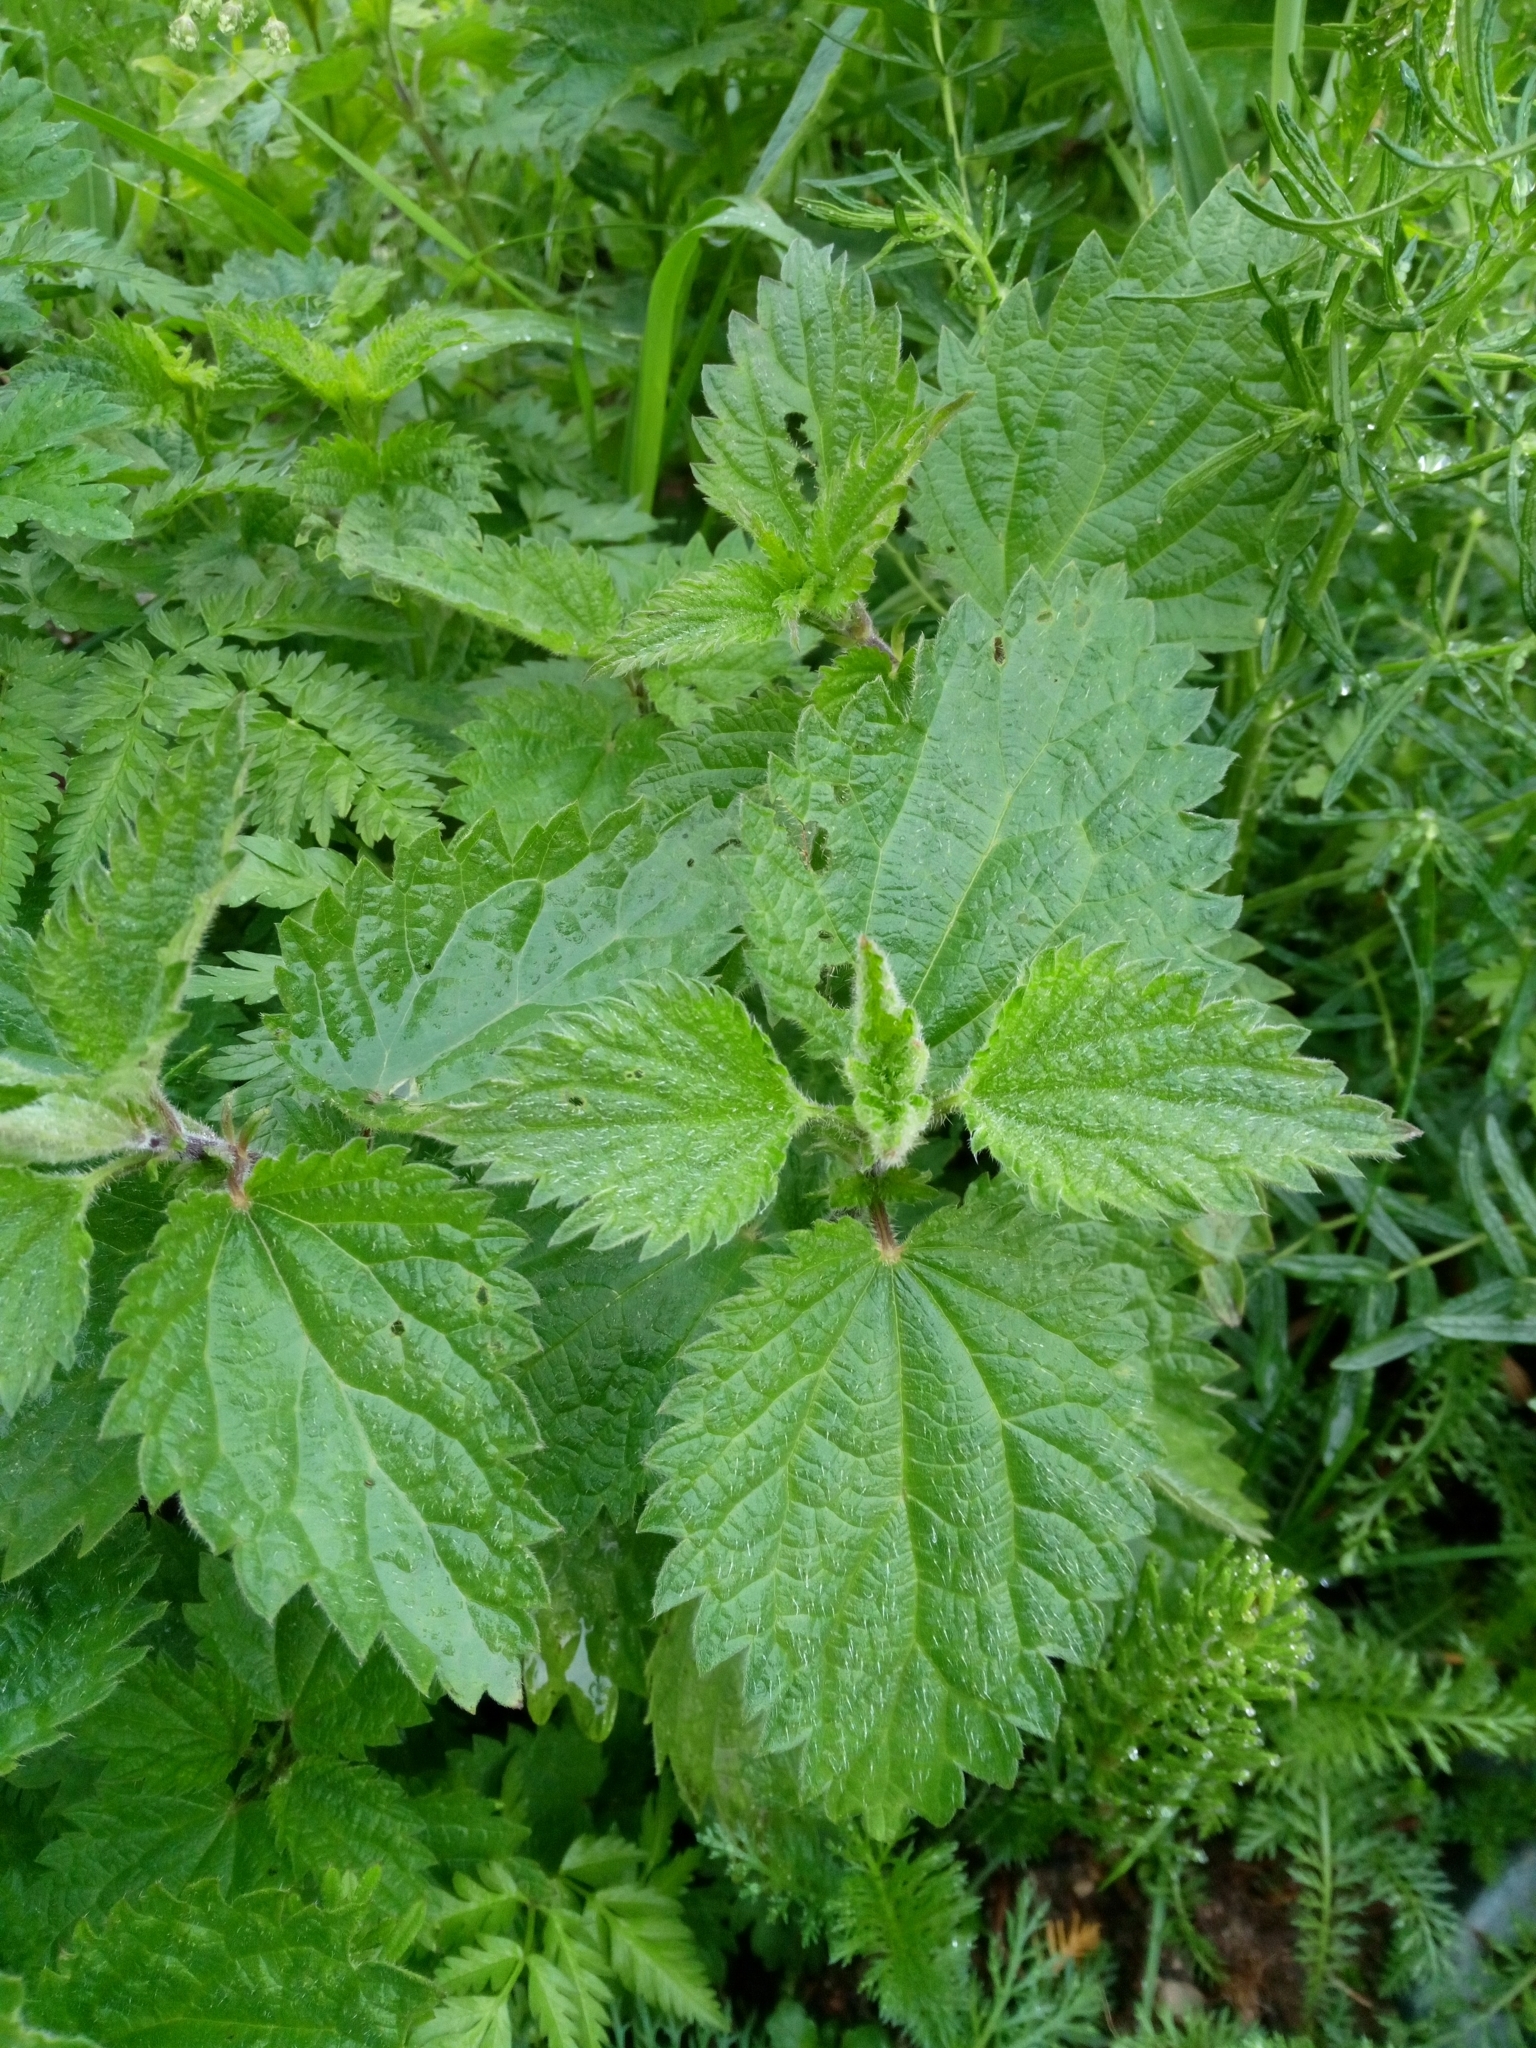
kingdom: Plantae
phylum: Tracheophyta
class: Magnoliopsida
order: Rosales
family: Urticaceae
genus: Urtica
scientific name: Urtica dioica
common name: Common nettle
